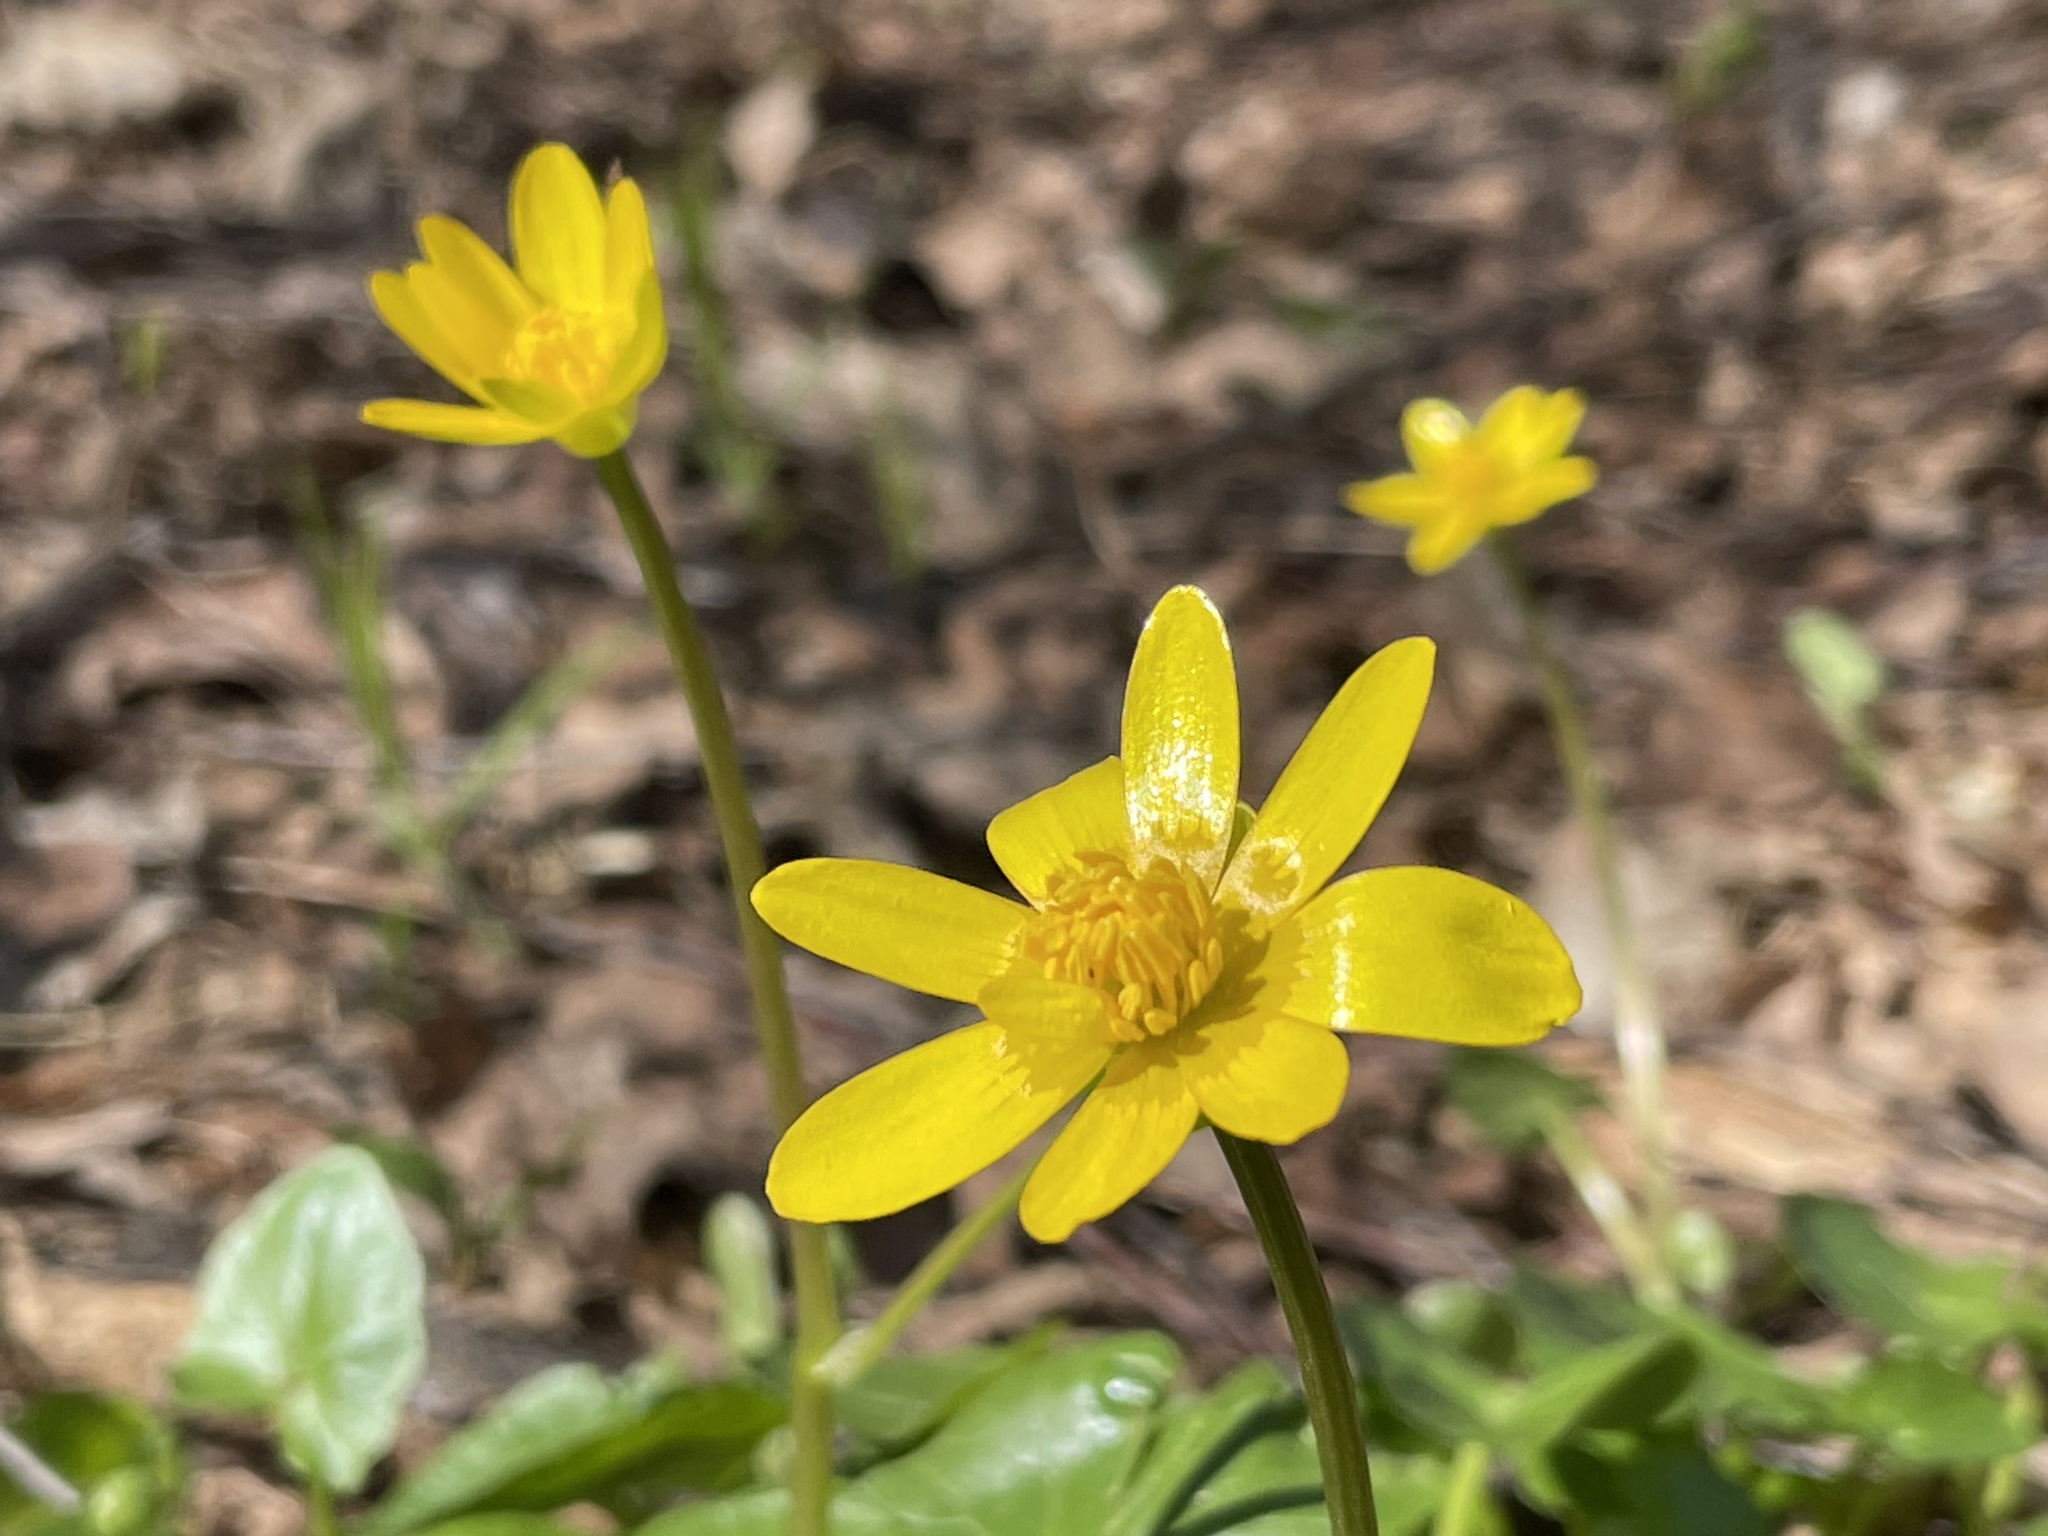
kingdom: Plantae
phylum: Tracheophyta
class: Magnoliopsida
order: Ranunculales
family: Ranunculaceae
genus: Ficaria
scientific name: Ficaria verna
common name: Lesser celandine
